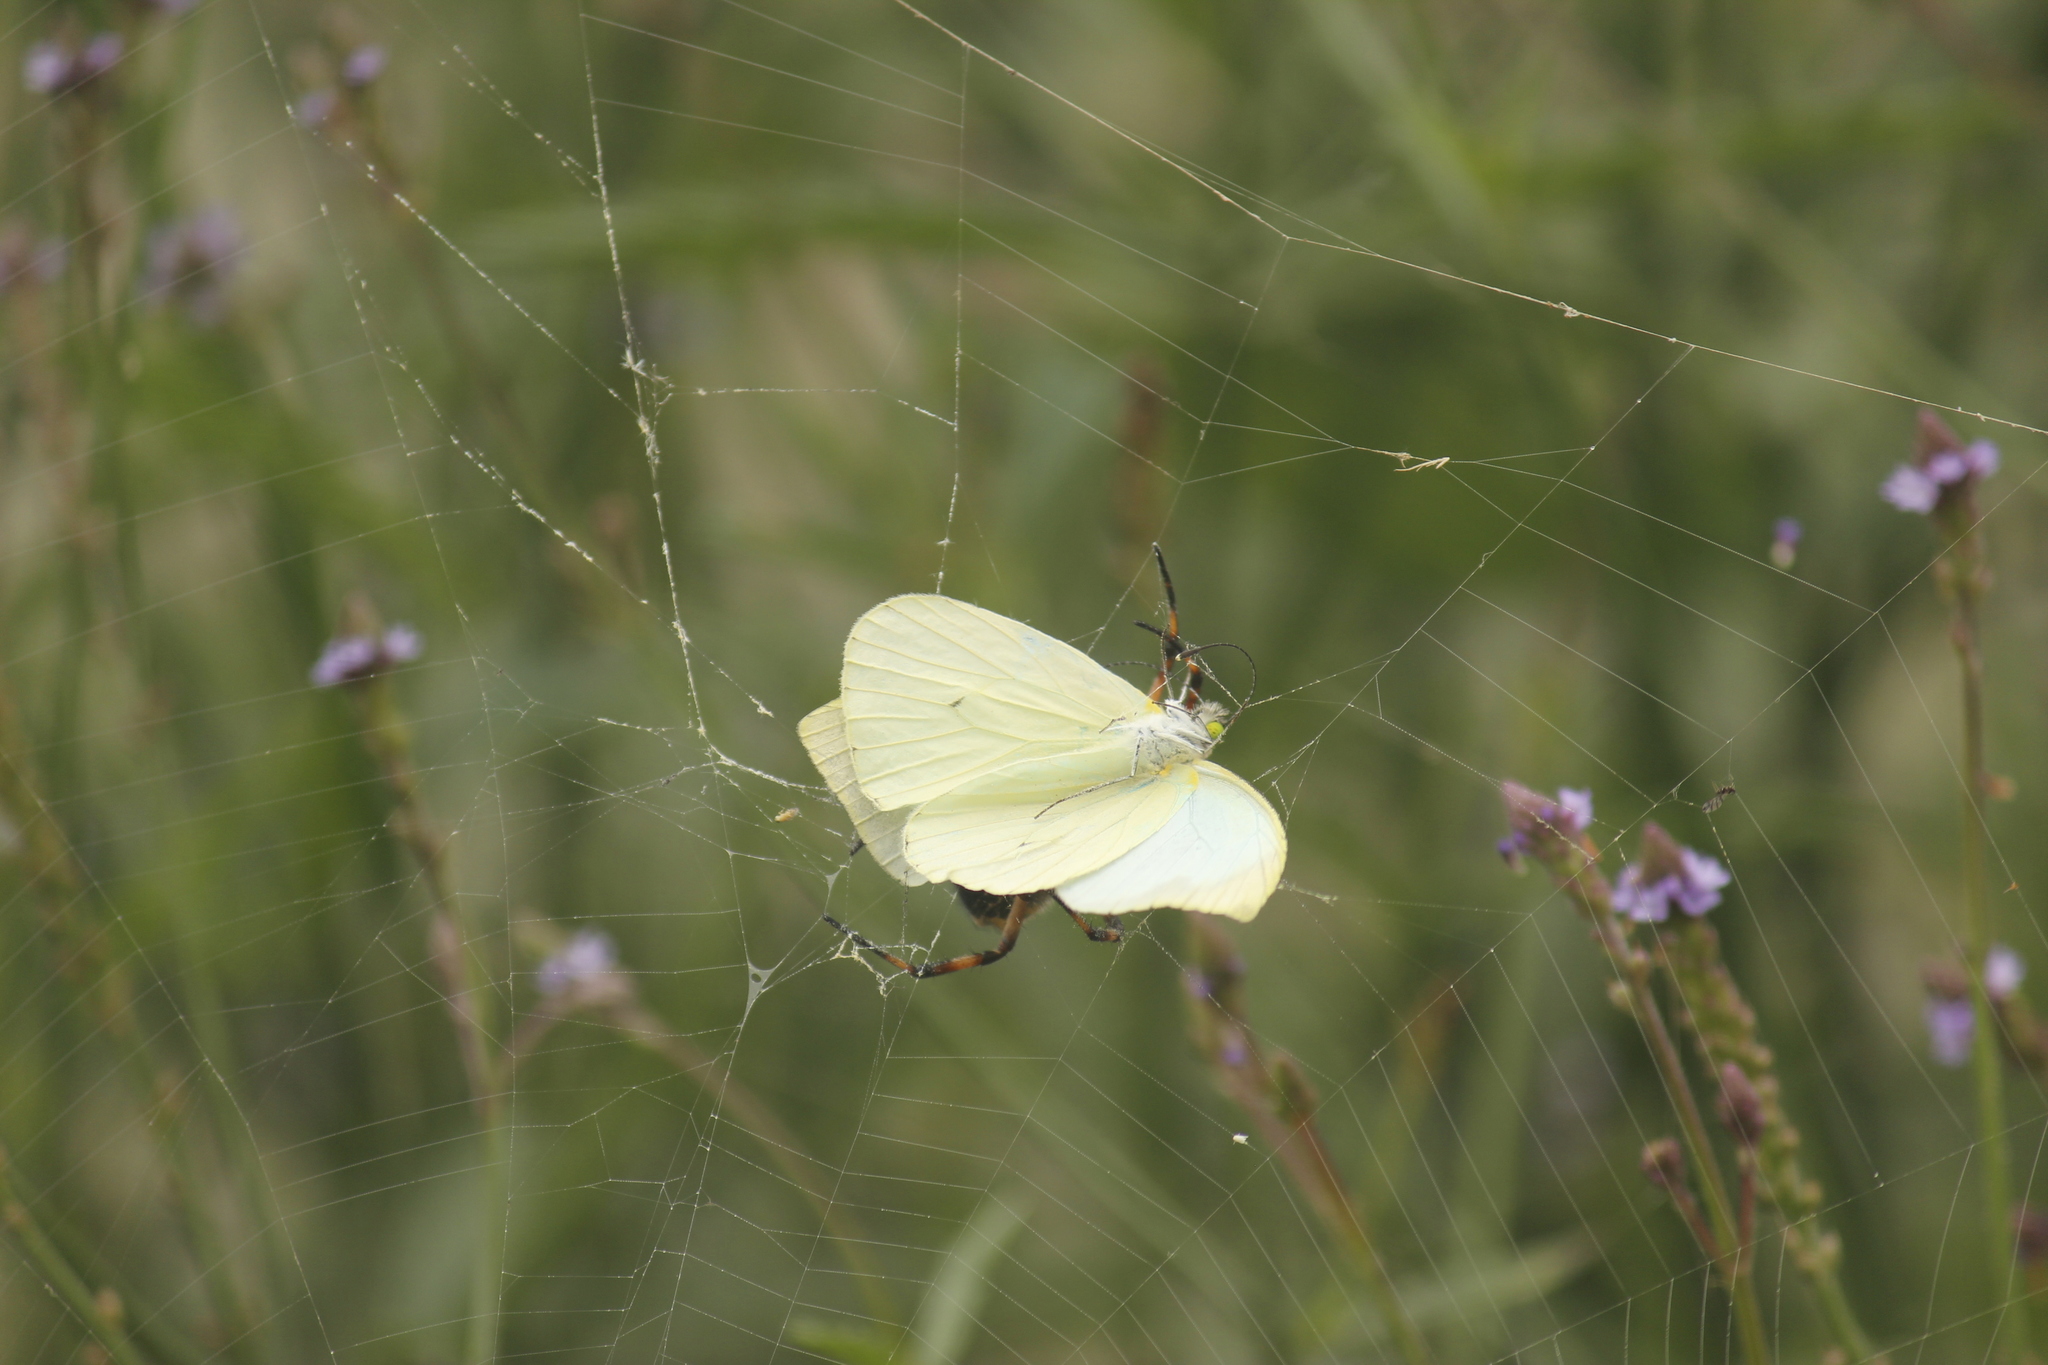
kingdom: Animalia
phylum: Arthropoda
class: Insecta
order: Lepidoptera
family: Pieridae
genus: Leptophobia
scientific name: Leptophobia aripa
